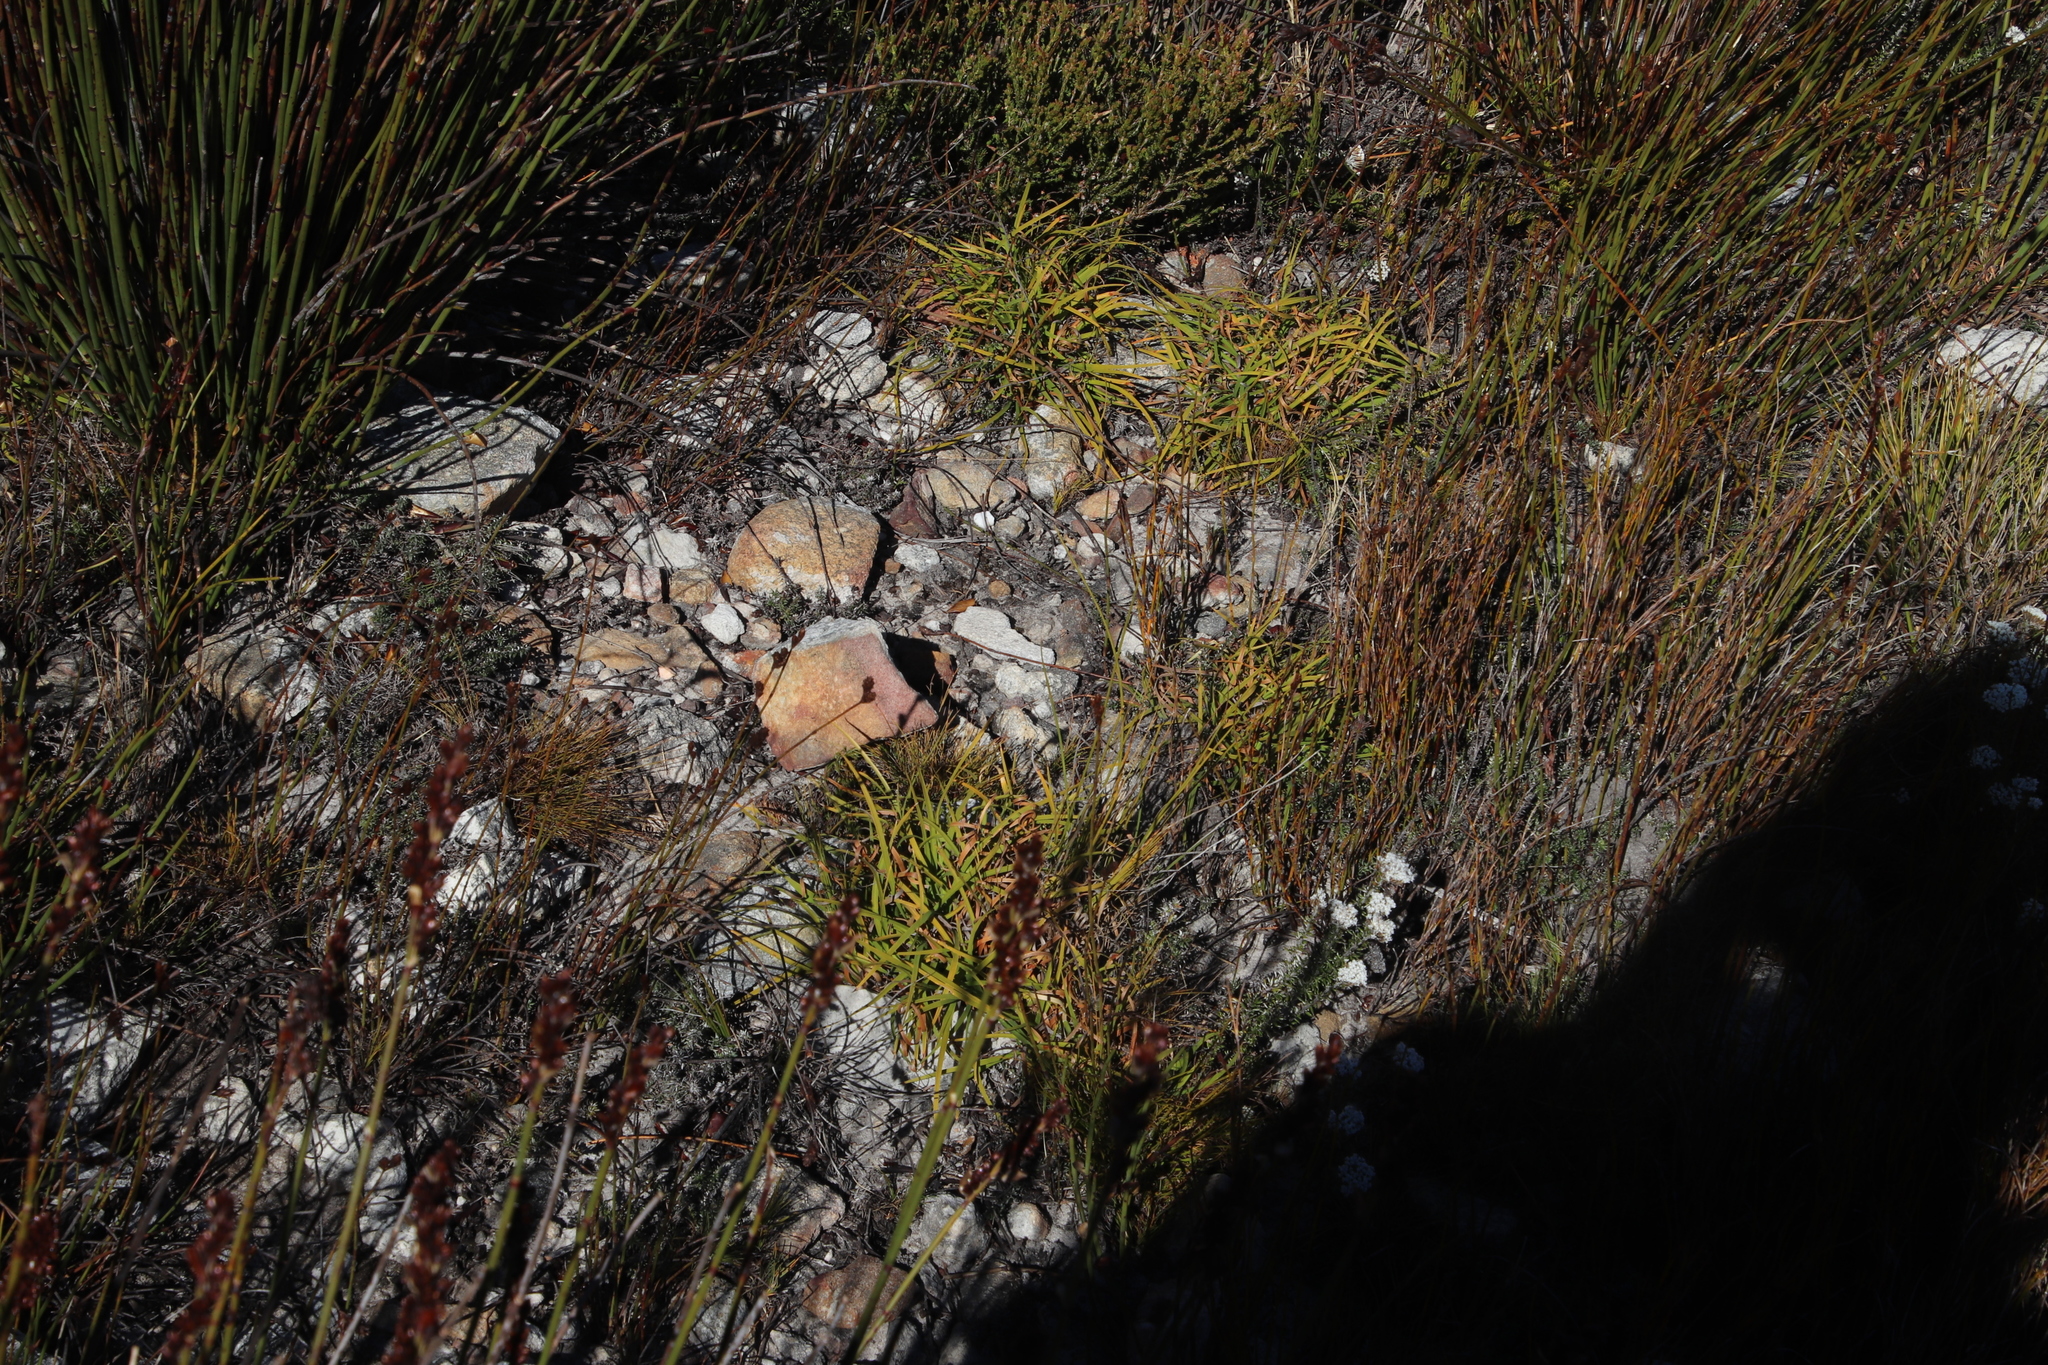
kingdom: Plantae
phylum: Tracheophyta
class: Liliopsida
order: Poales
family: Cyperaceae
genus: Capeobolus
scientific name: Capeobolus brevicaulis
